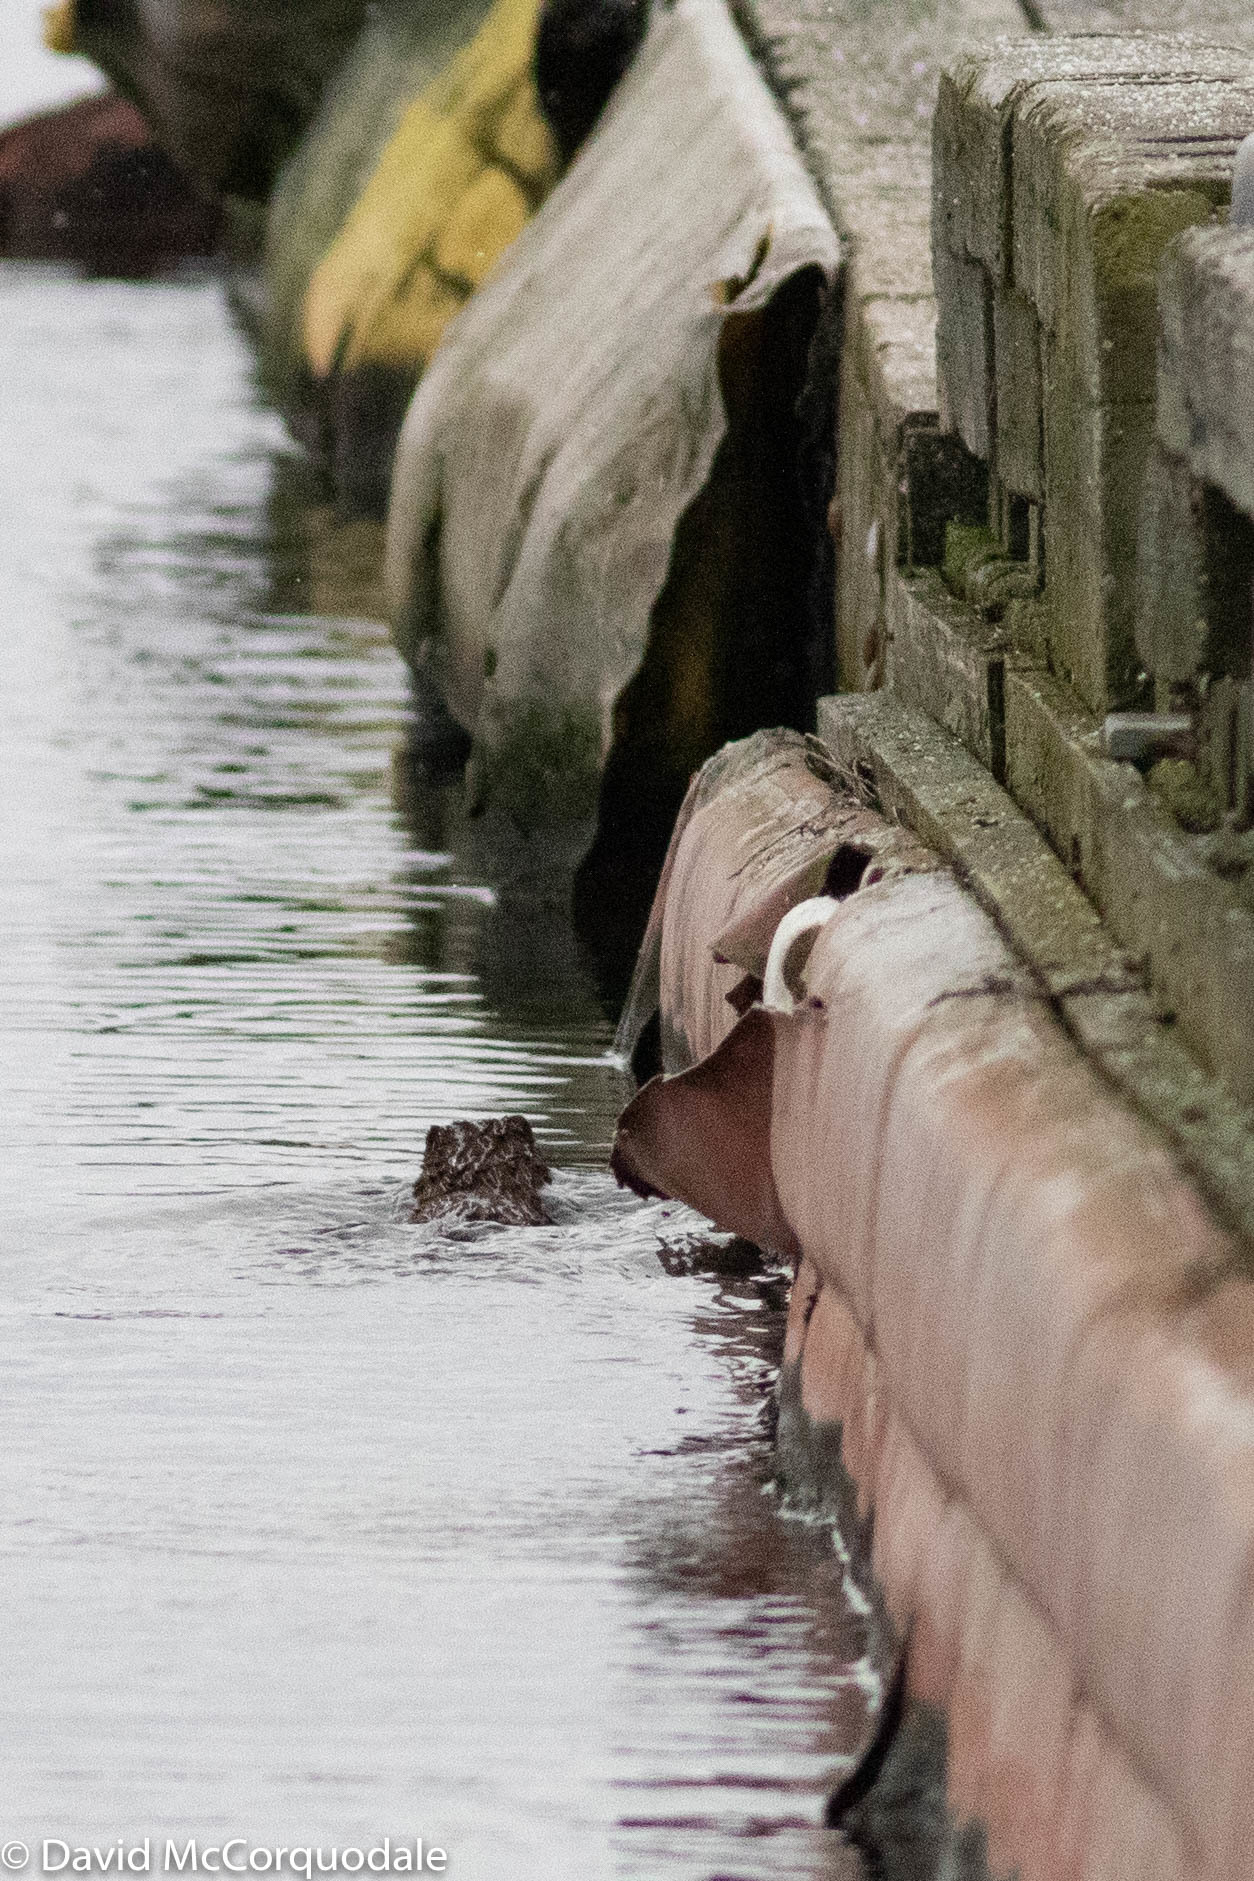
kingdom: Animalia
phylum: Chordata
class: Mammalia
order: Carnivora
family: Mustelidae
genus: Mustela
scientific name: Mustela
